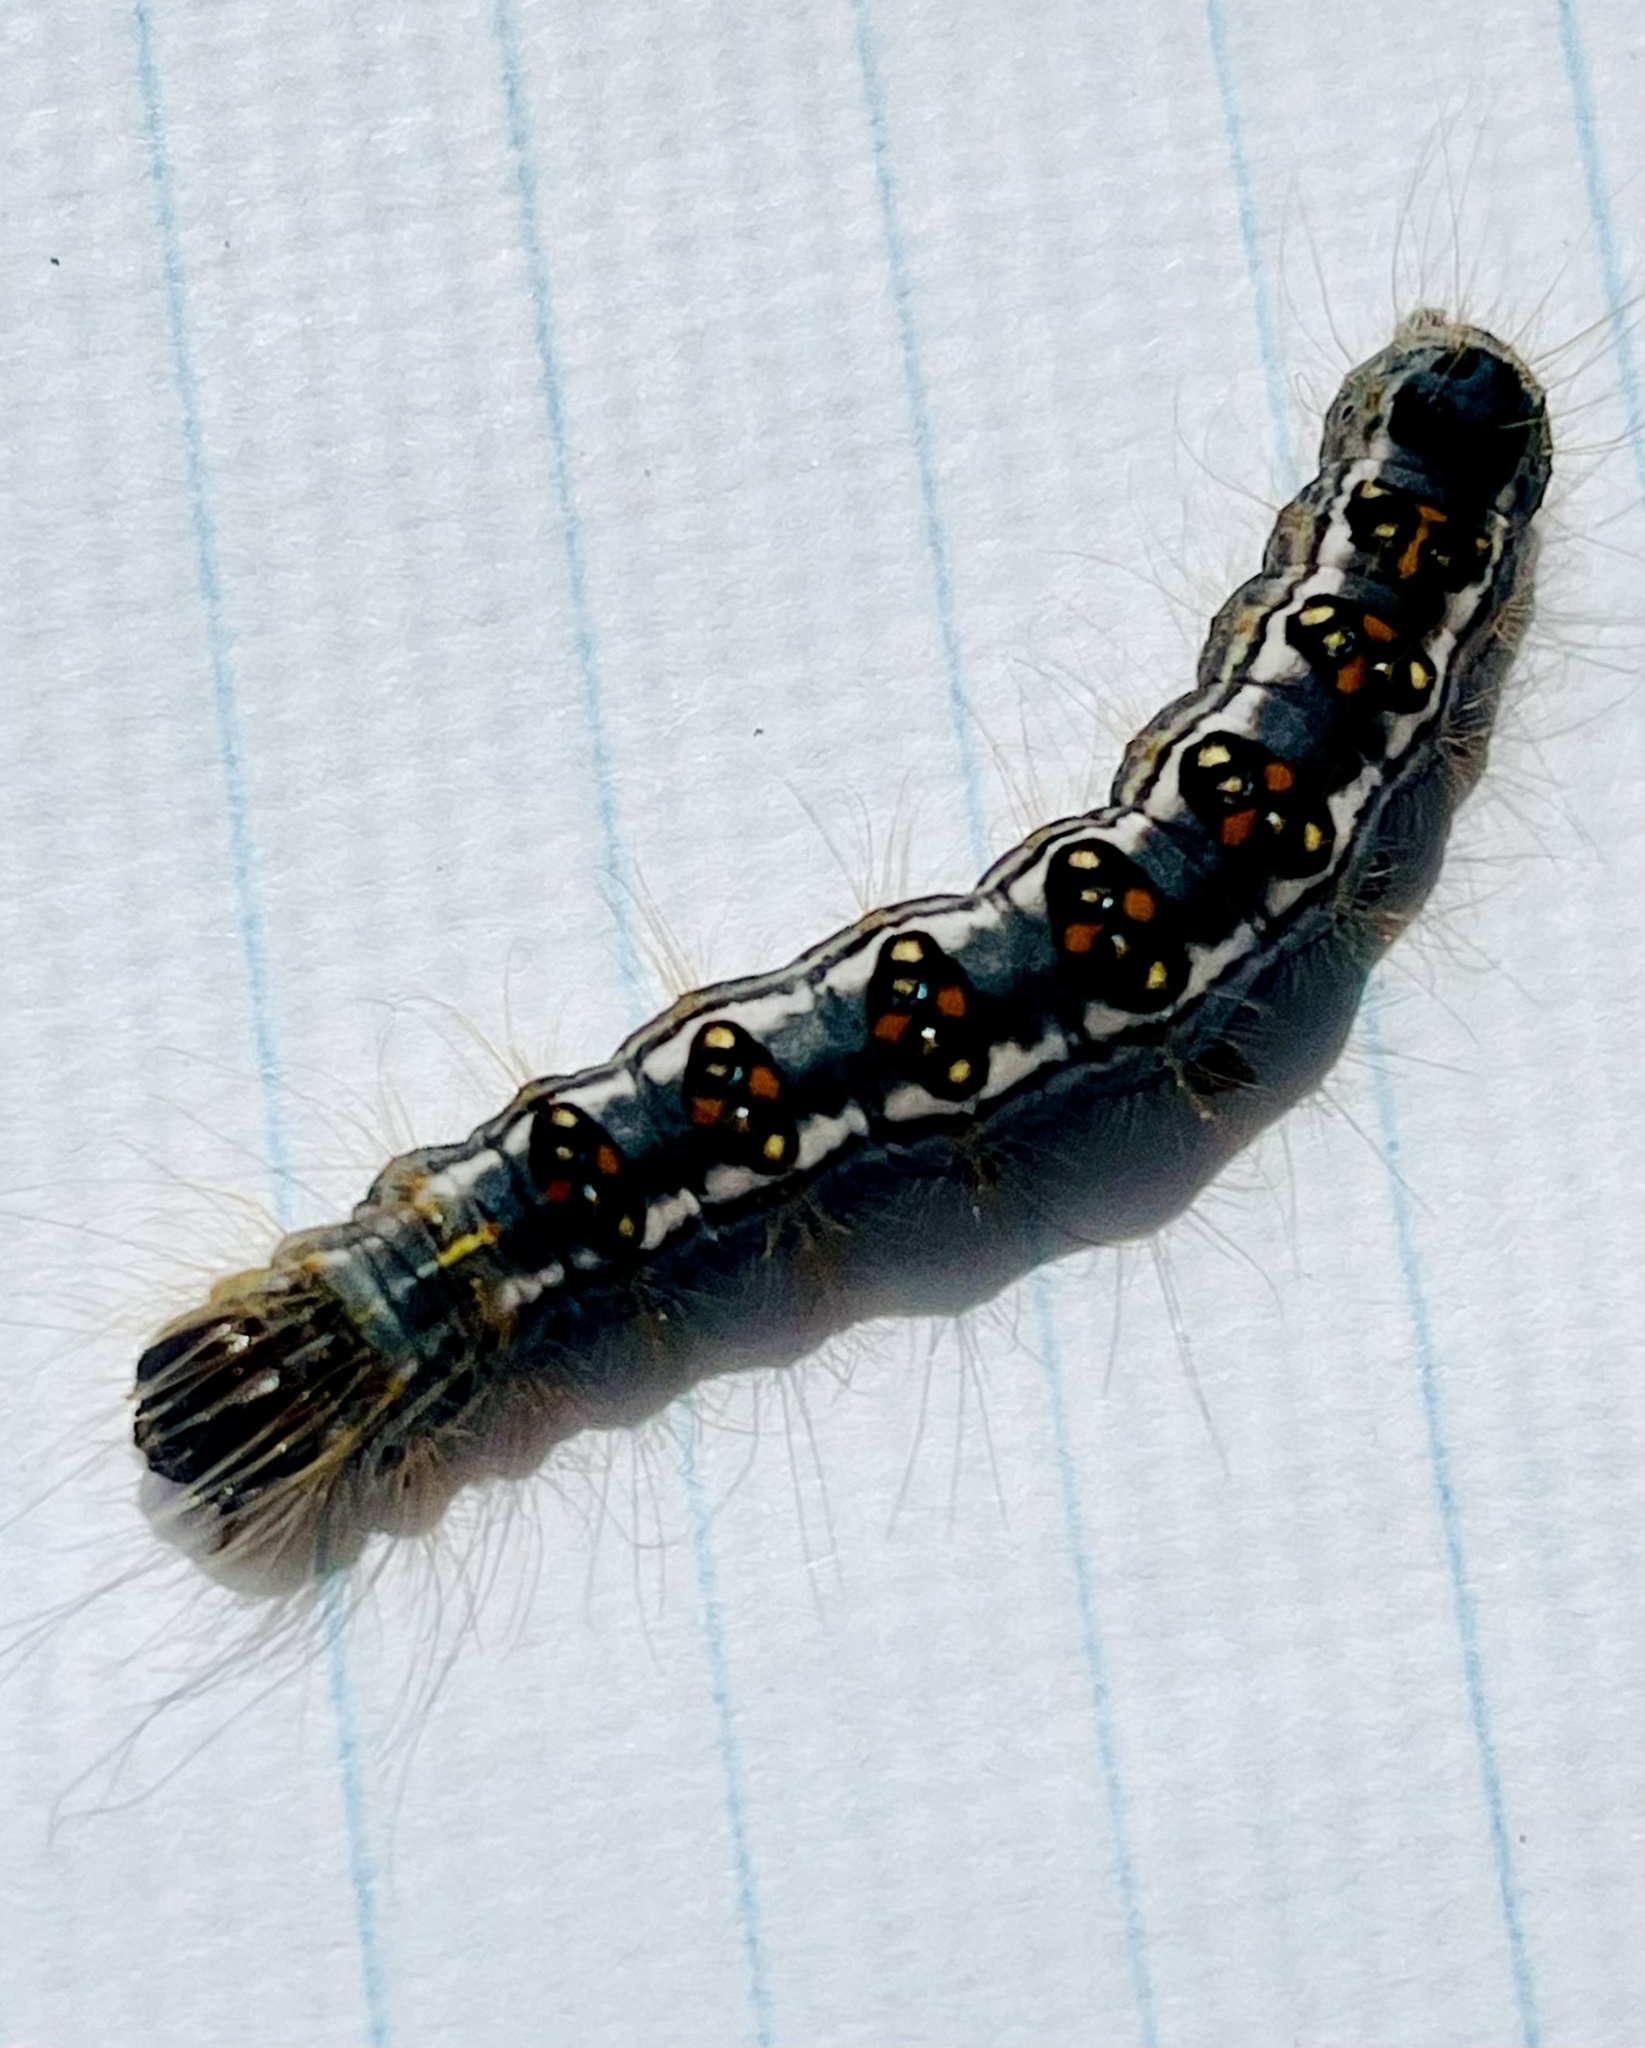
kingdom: Animalia
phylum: Arthropoda
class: Insecta
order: Lepidoptera
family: Noctuidae
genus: Acronicta
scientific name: Acronicta interrupta
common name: Interrupted dagger
